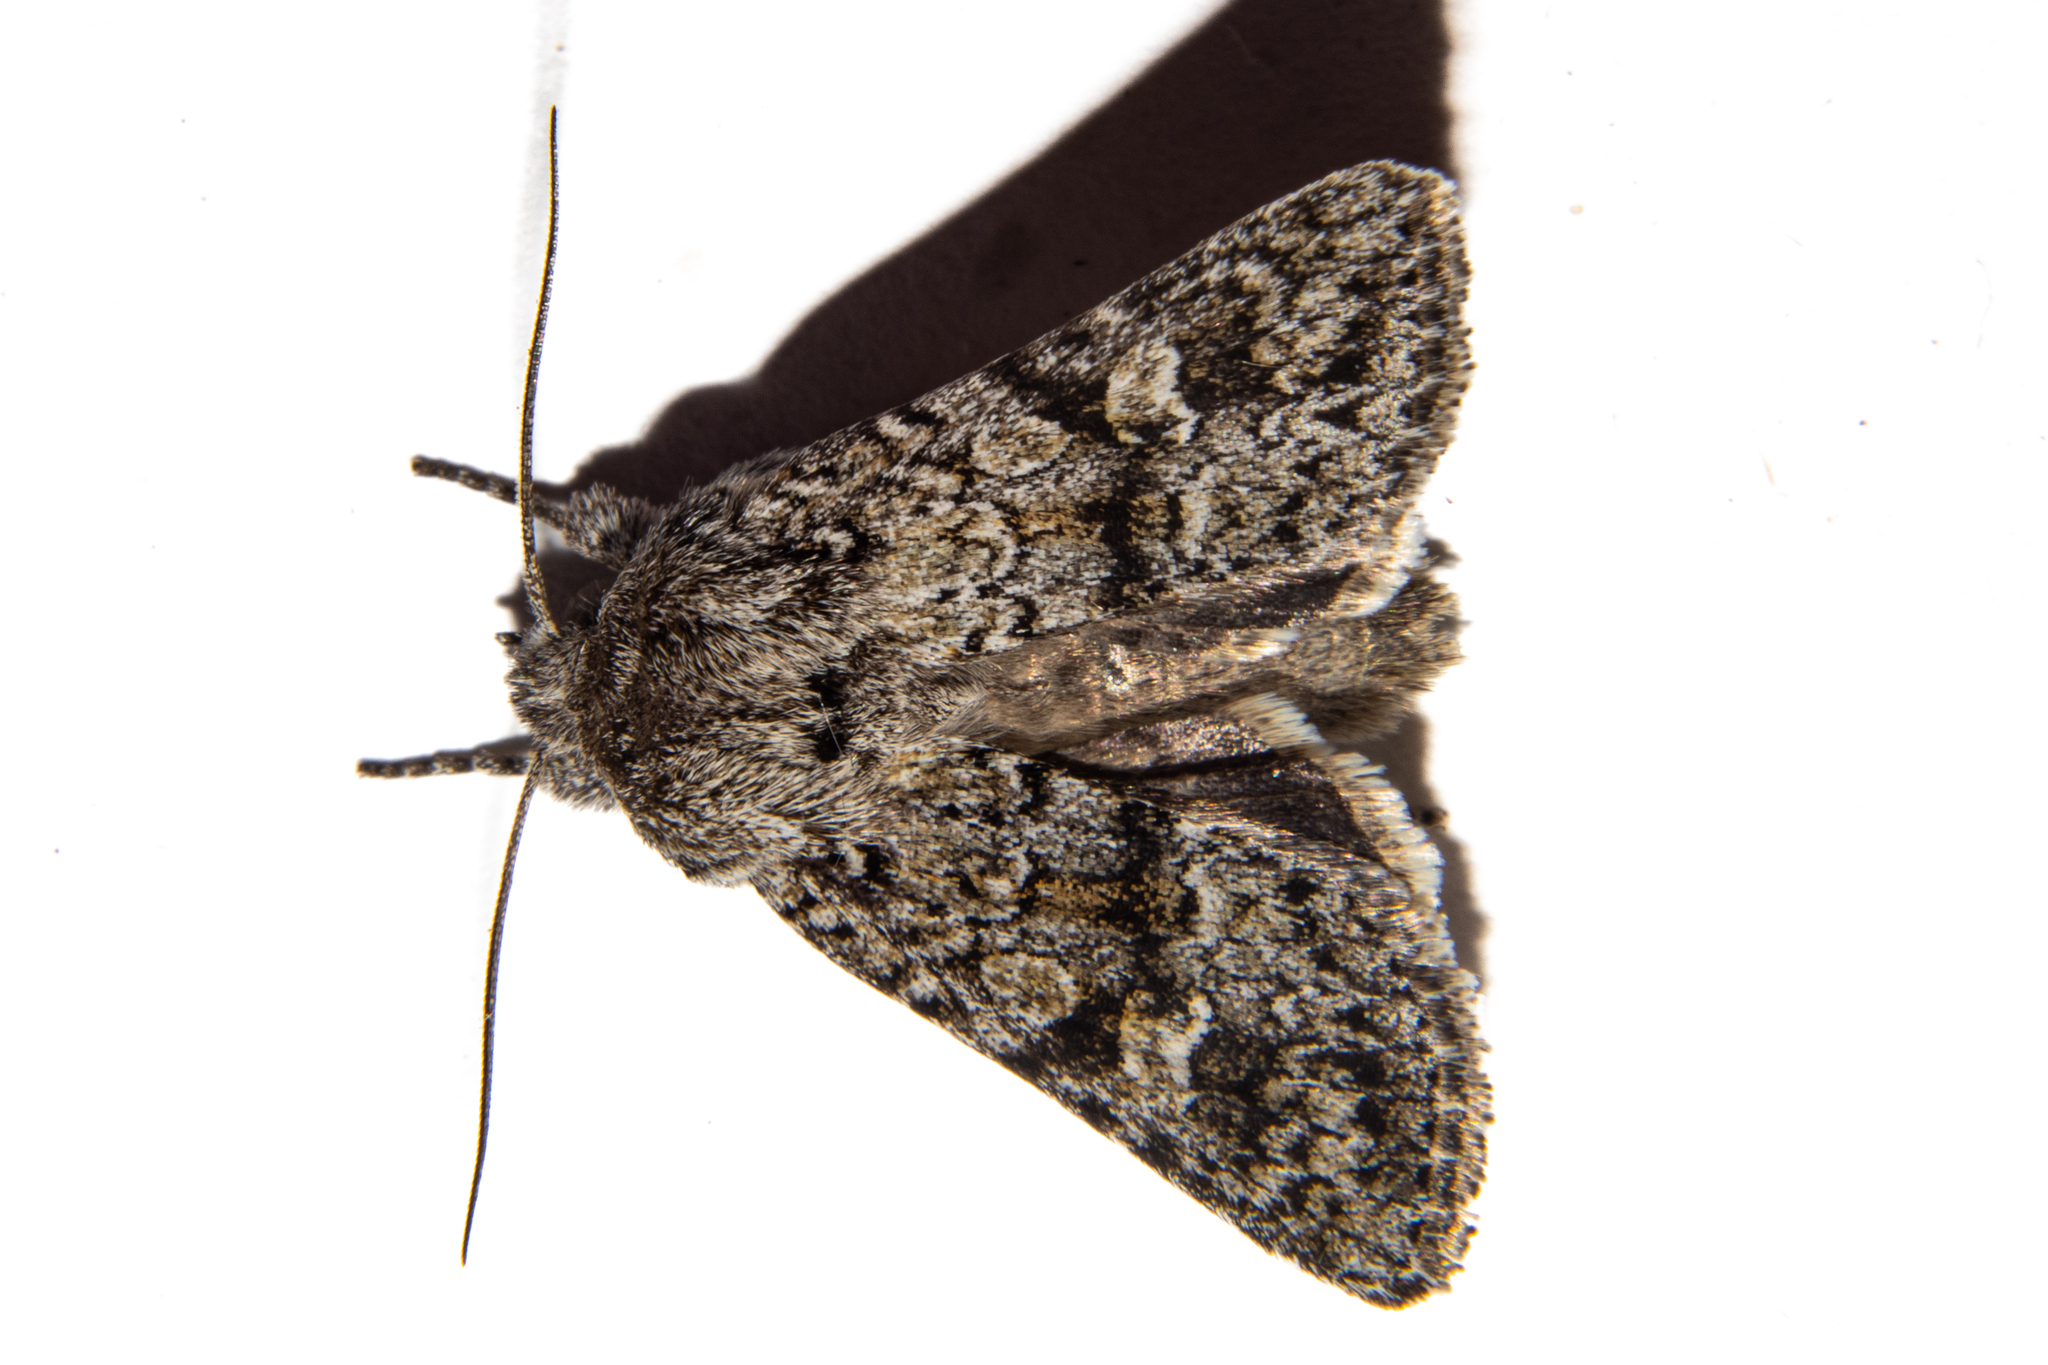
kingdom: Animalia
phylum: Arthropoda
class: Insecta
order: Lepidoptera
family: Noctuidae
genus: Physetica
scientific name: Physetica cucullina
